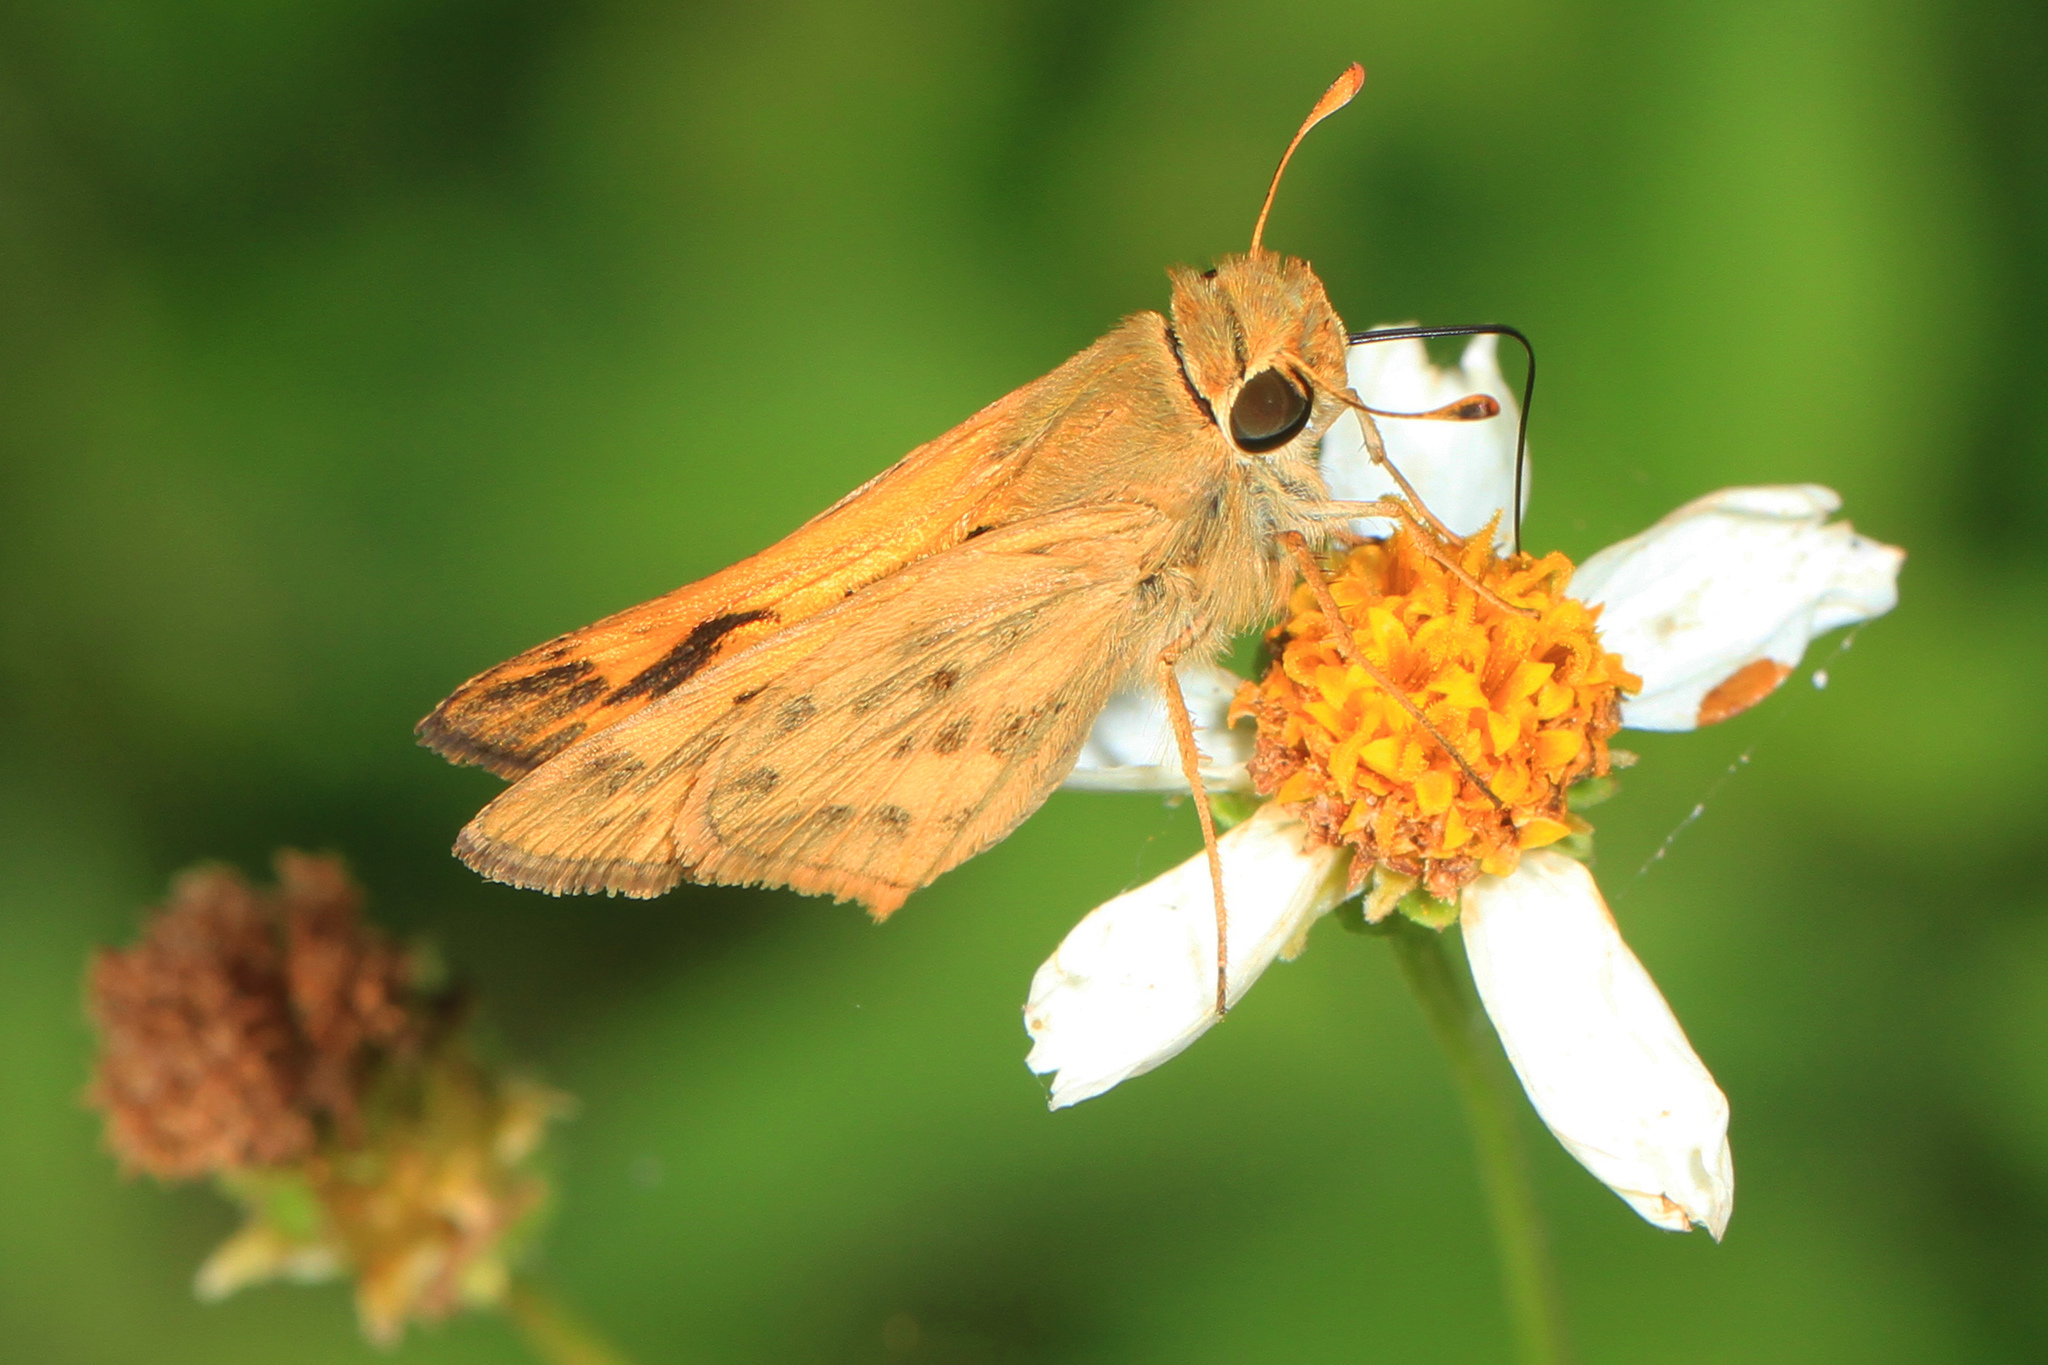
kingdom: Animalia
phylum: Arthropoda
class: Insecta
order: Lepidoptera
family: Hesperiidae
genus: Hylephila
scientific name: Hylephila phyleus
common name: Fiery skipper
